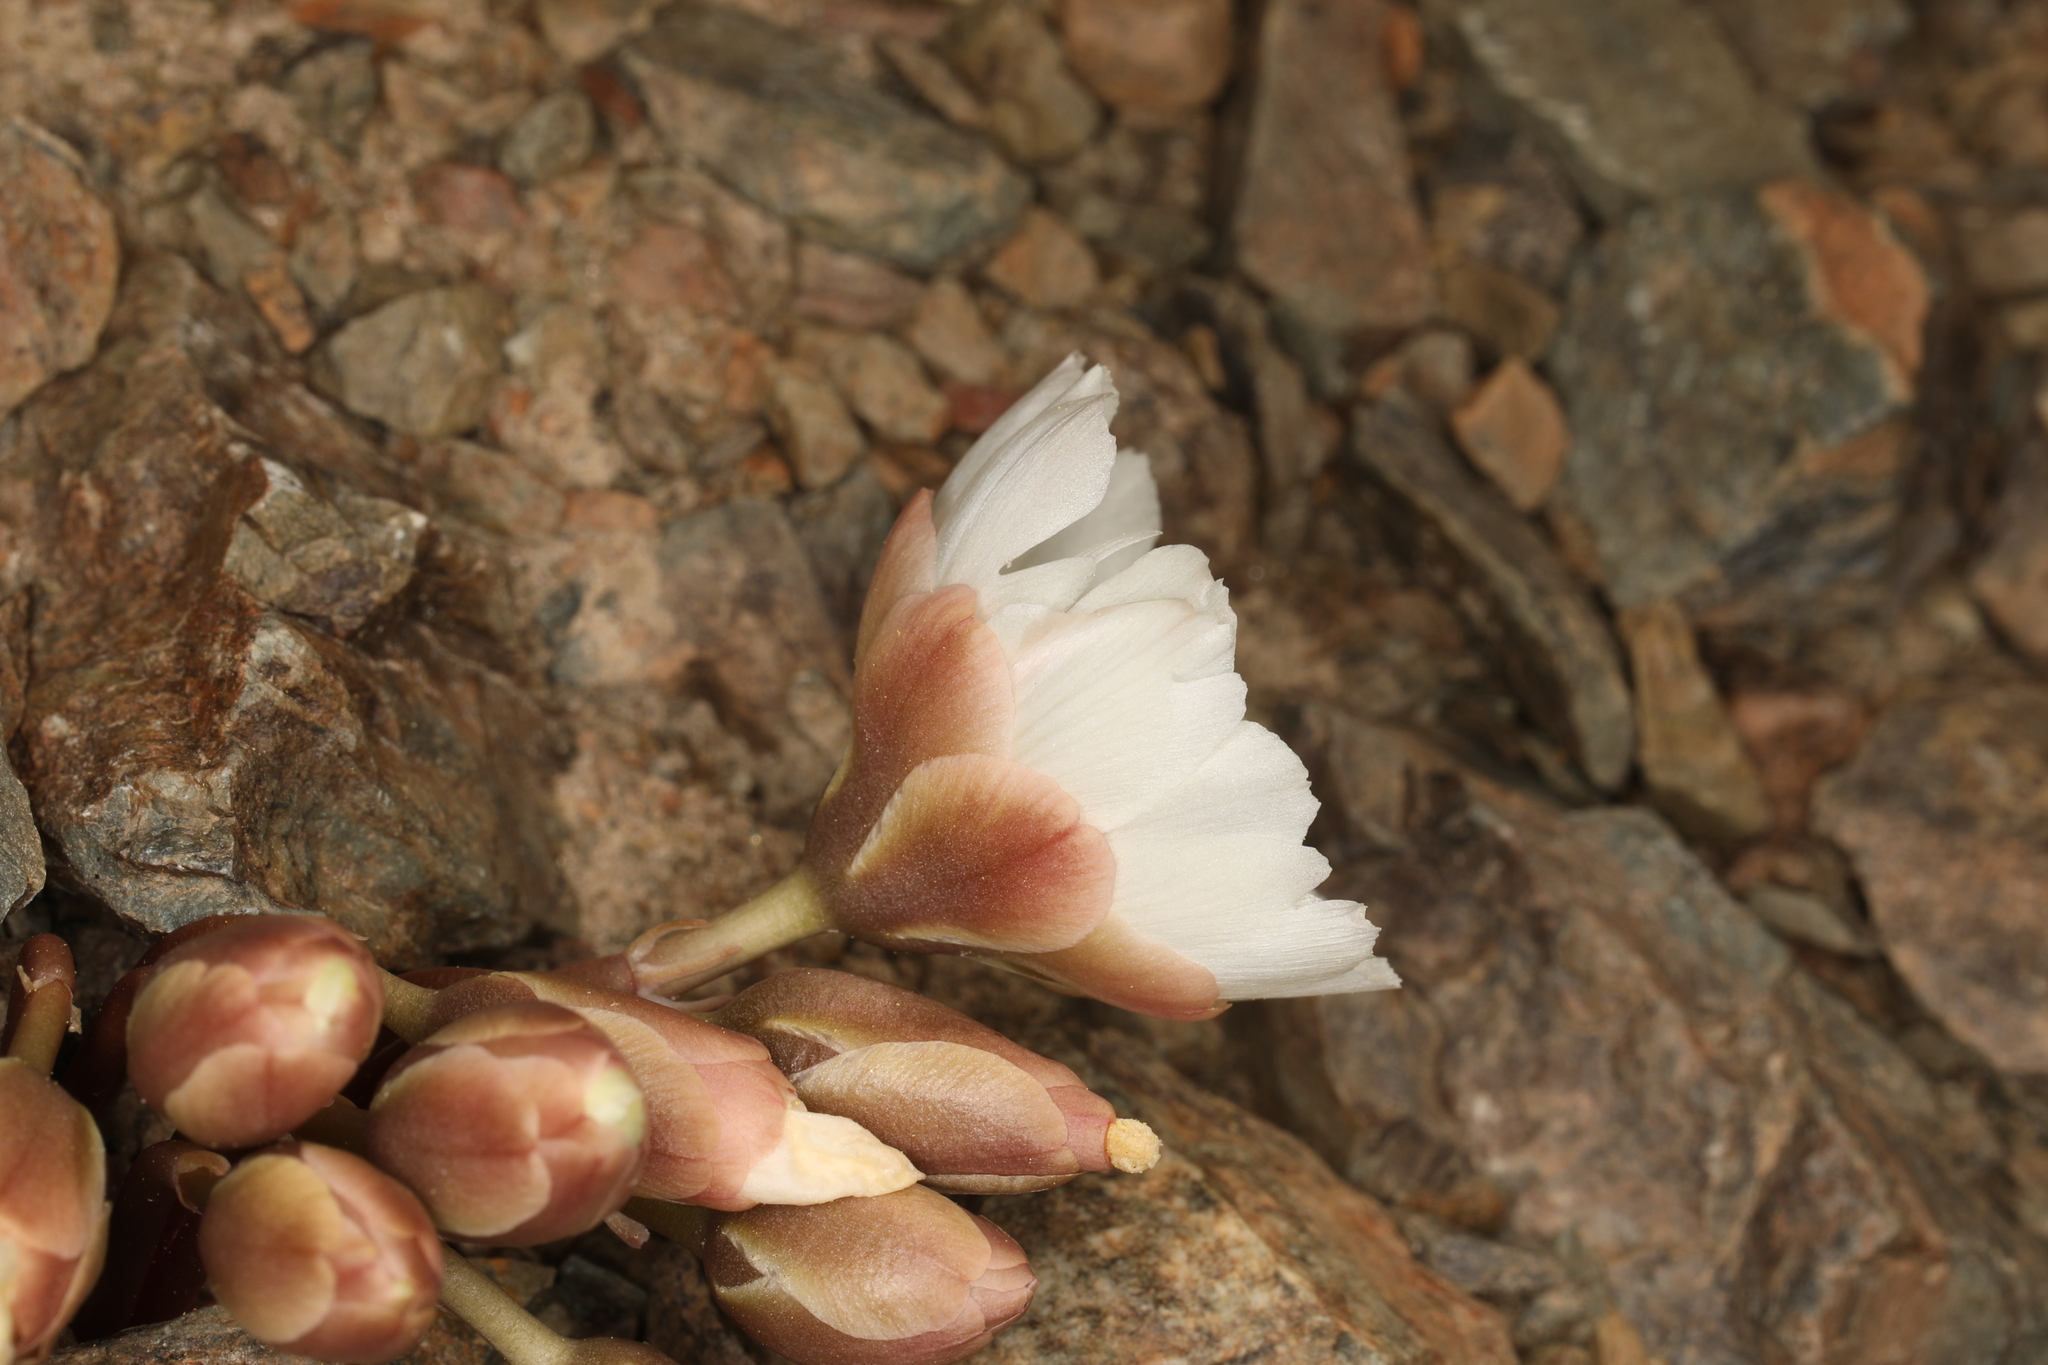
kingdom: Plantae
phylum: Tracheophyta
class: Magnoliopsida
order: Caryophyllales
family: Montiaceae
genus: Lewisia
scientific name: Lewisia rediviva
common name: Bitter-root
